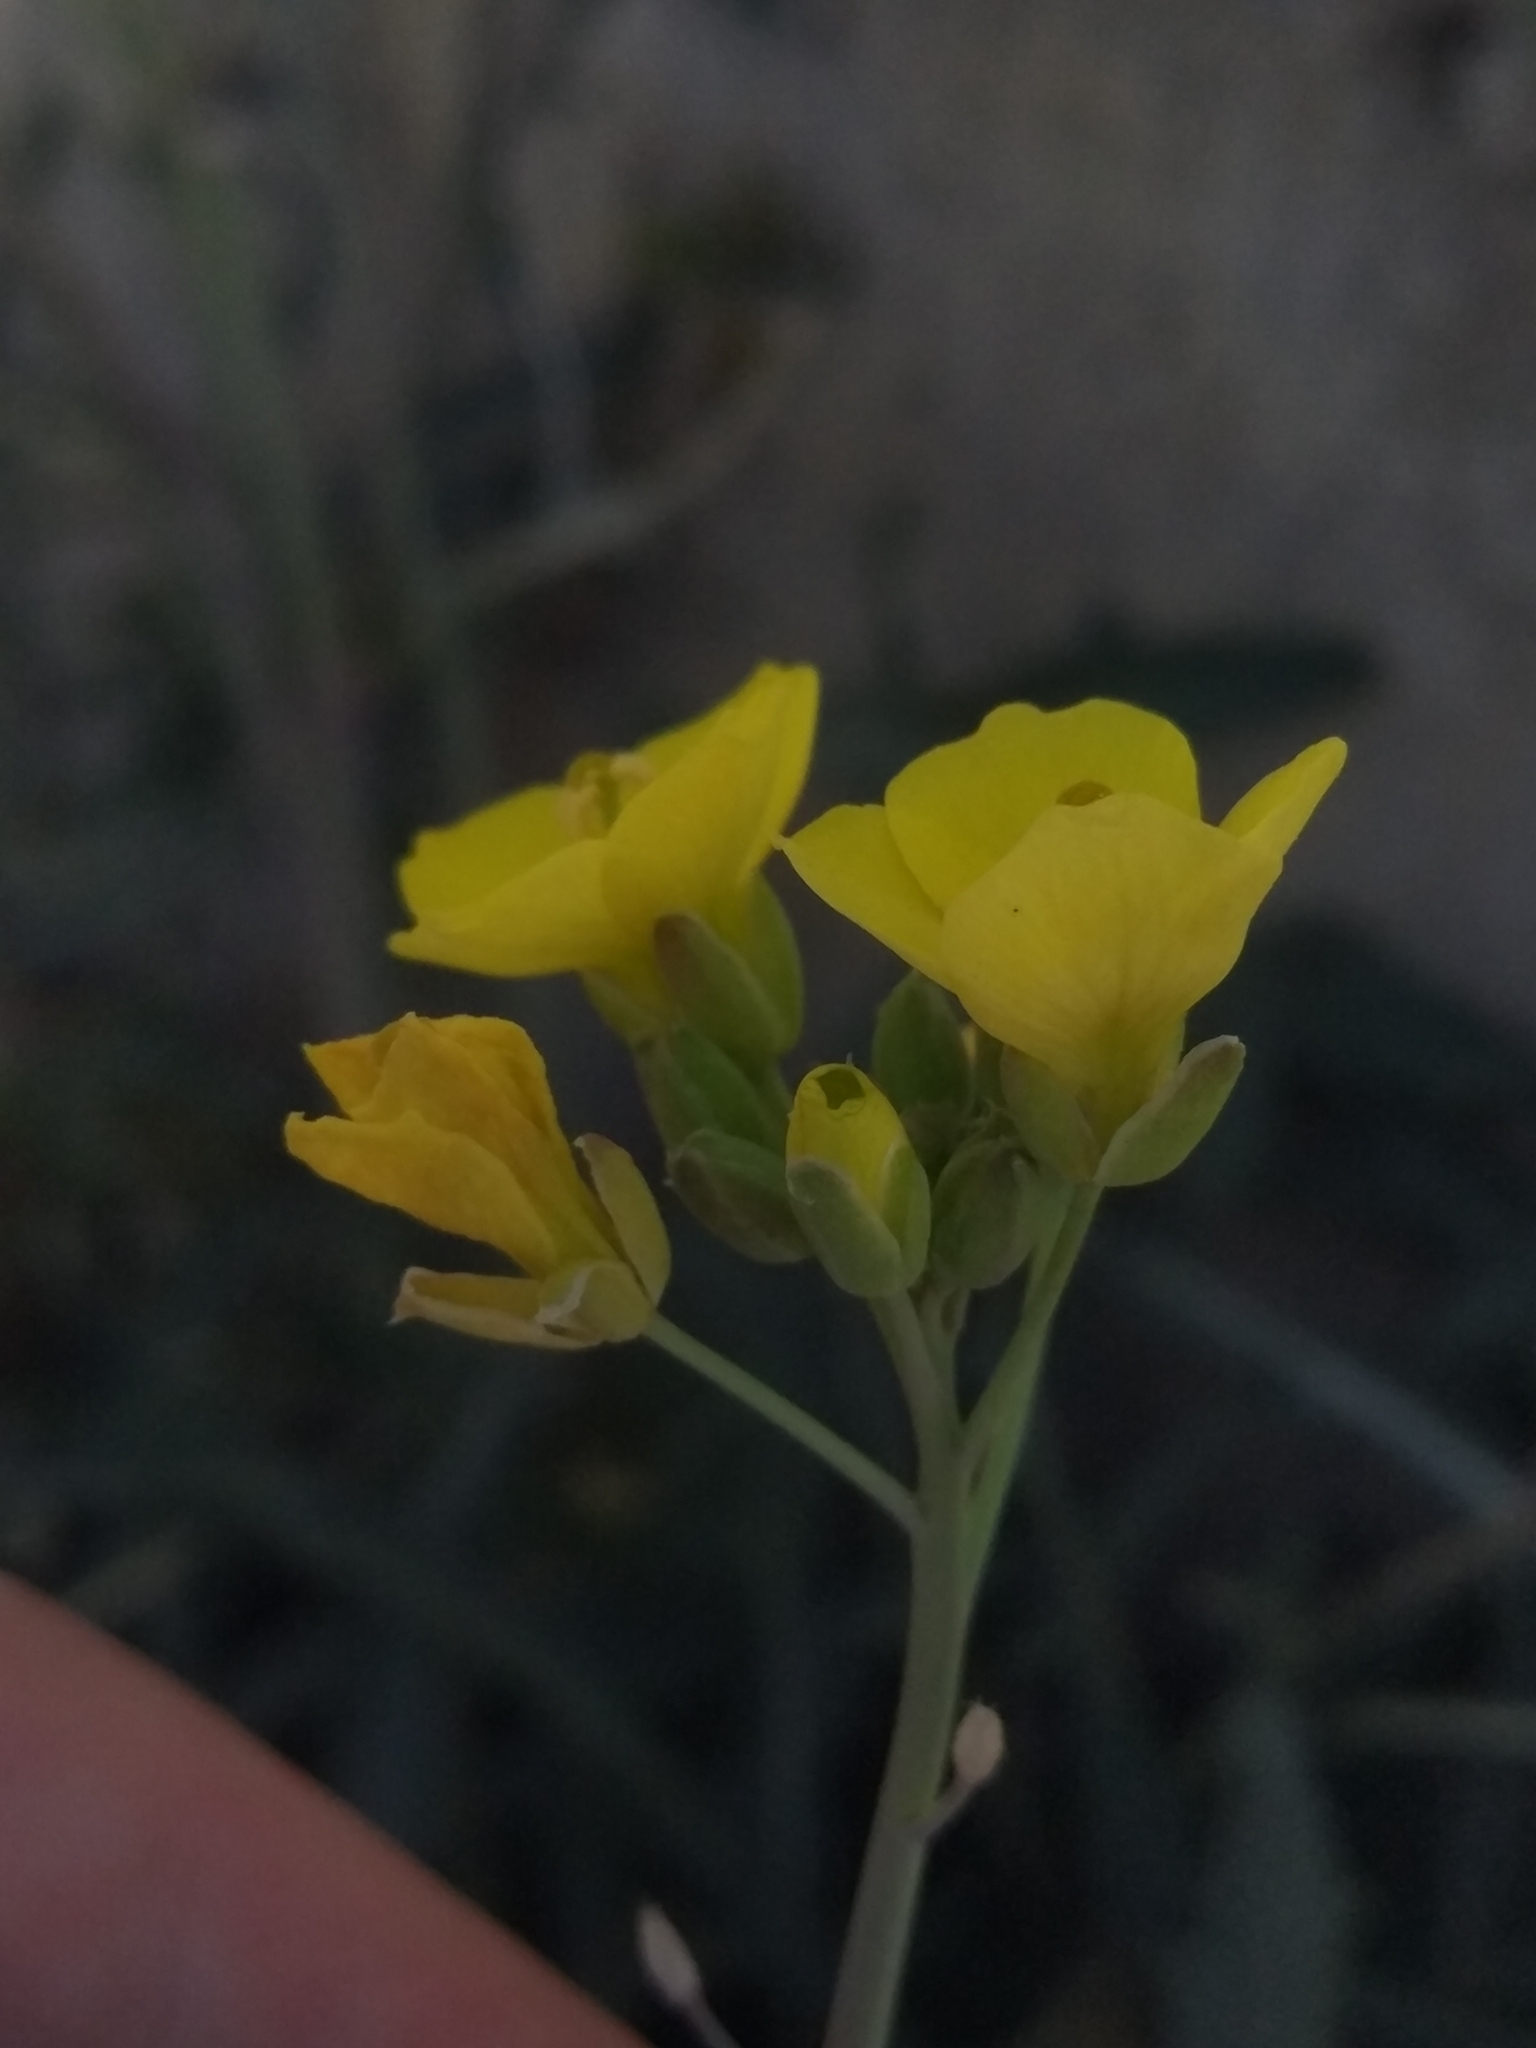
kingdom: Plantae
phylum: Tracheophyta
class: Magnoliopsida
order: Brassicales
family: Brassicaceae
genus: Diplotaxis
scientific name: Diplotaxis muralis
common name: Annual wall-rocket
